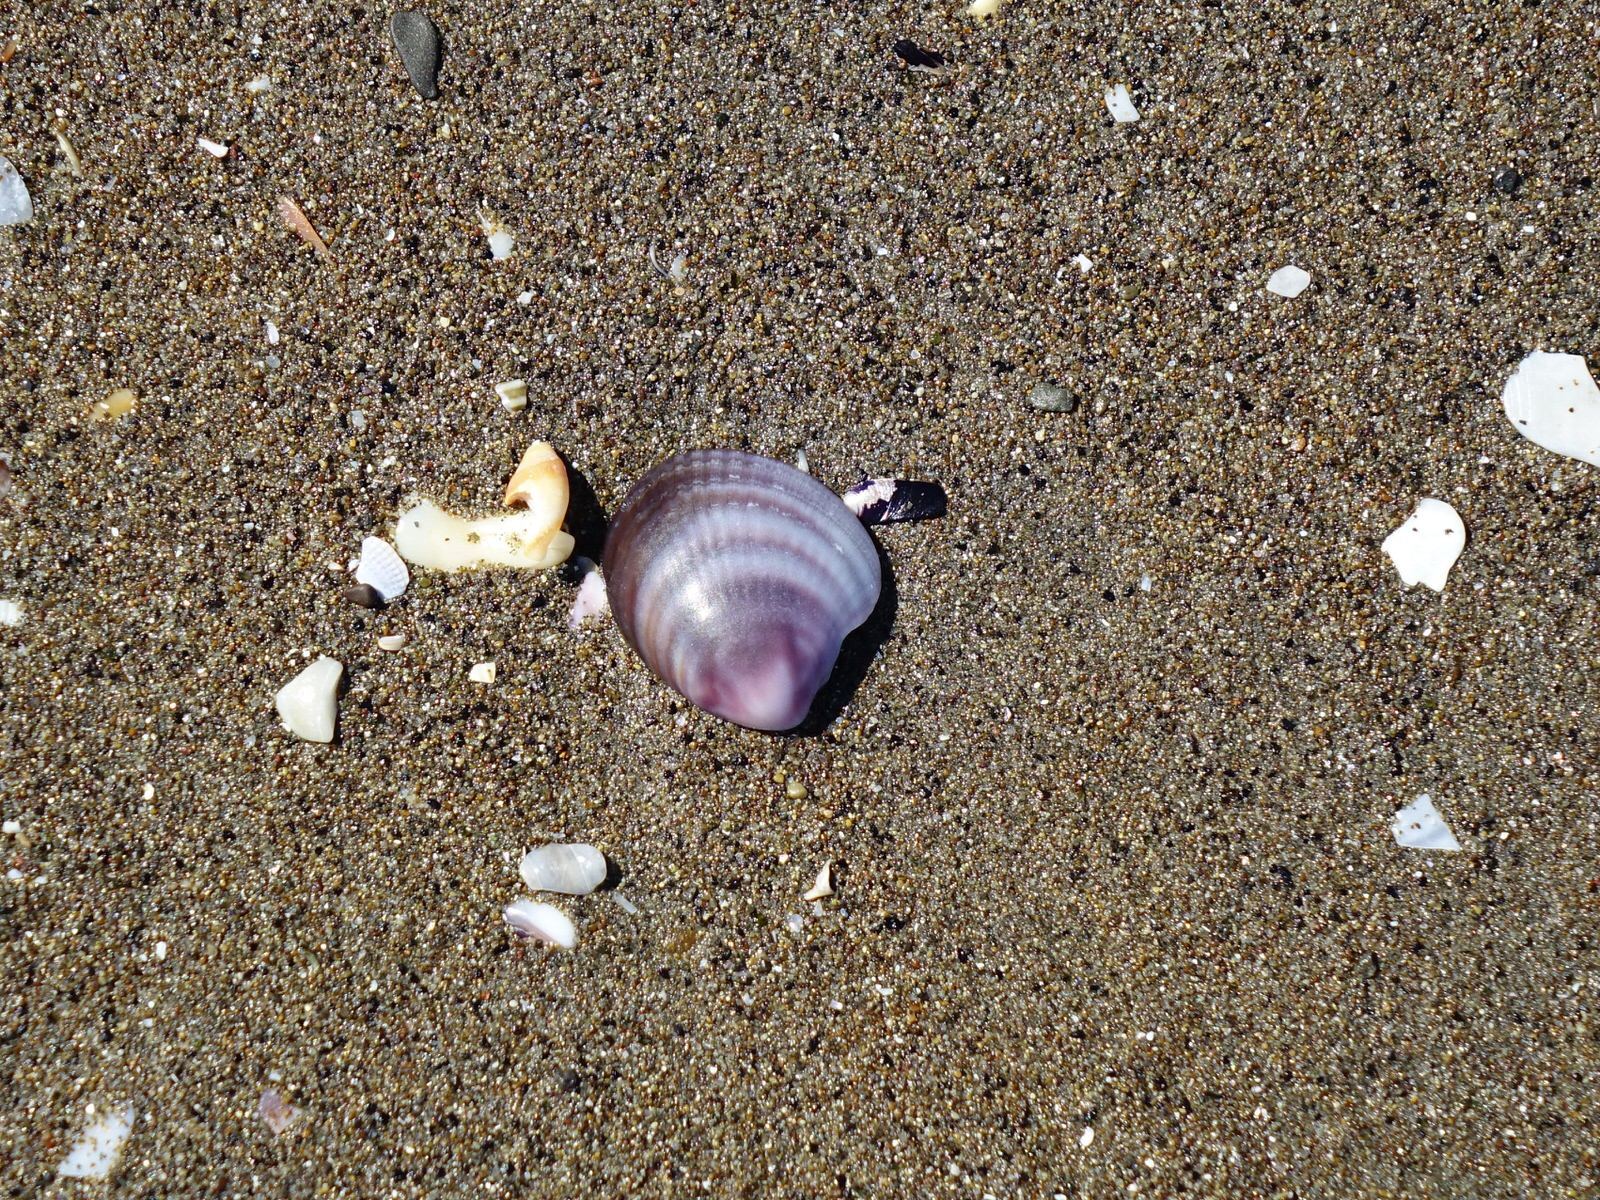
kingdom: Animalia
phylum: Mollusca
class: Bivalvia
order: Venerida
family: Veneridae
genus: Austrovenus
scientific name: Austrovenus stutchburyi
